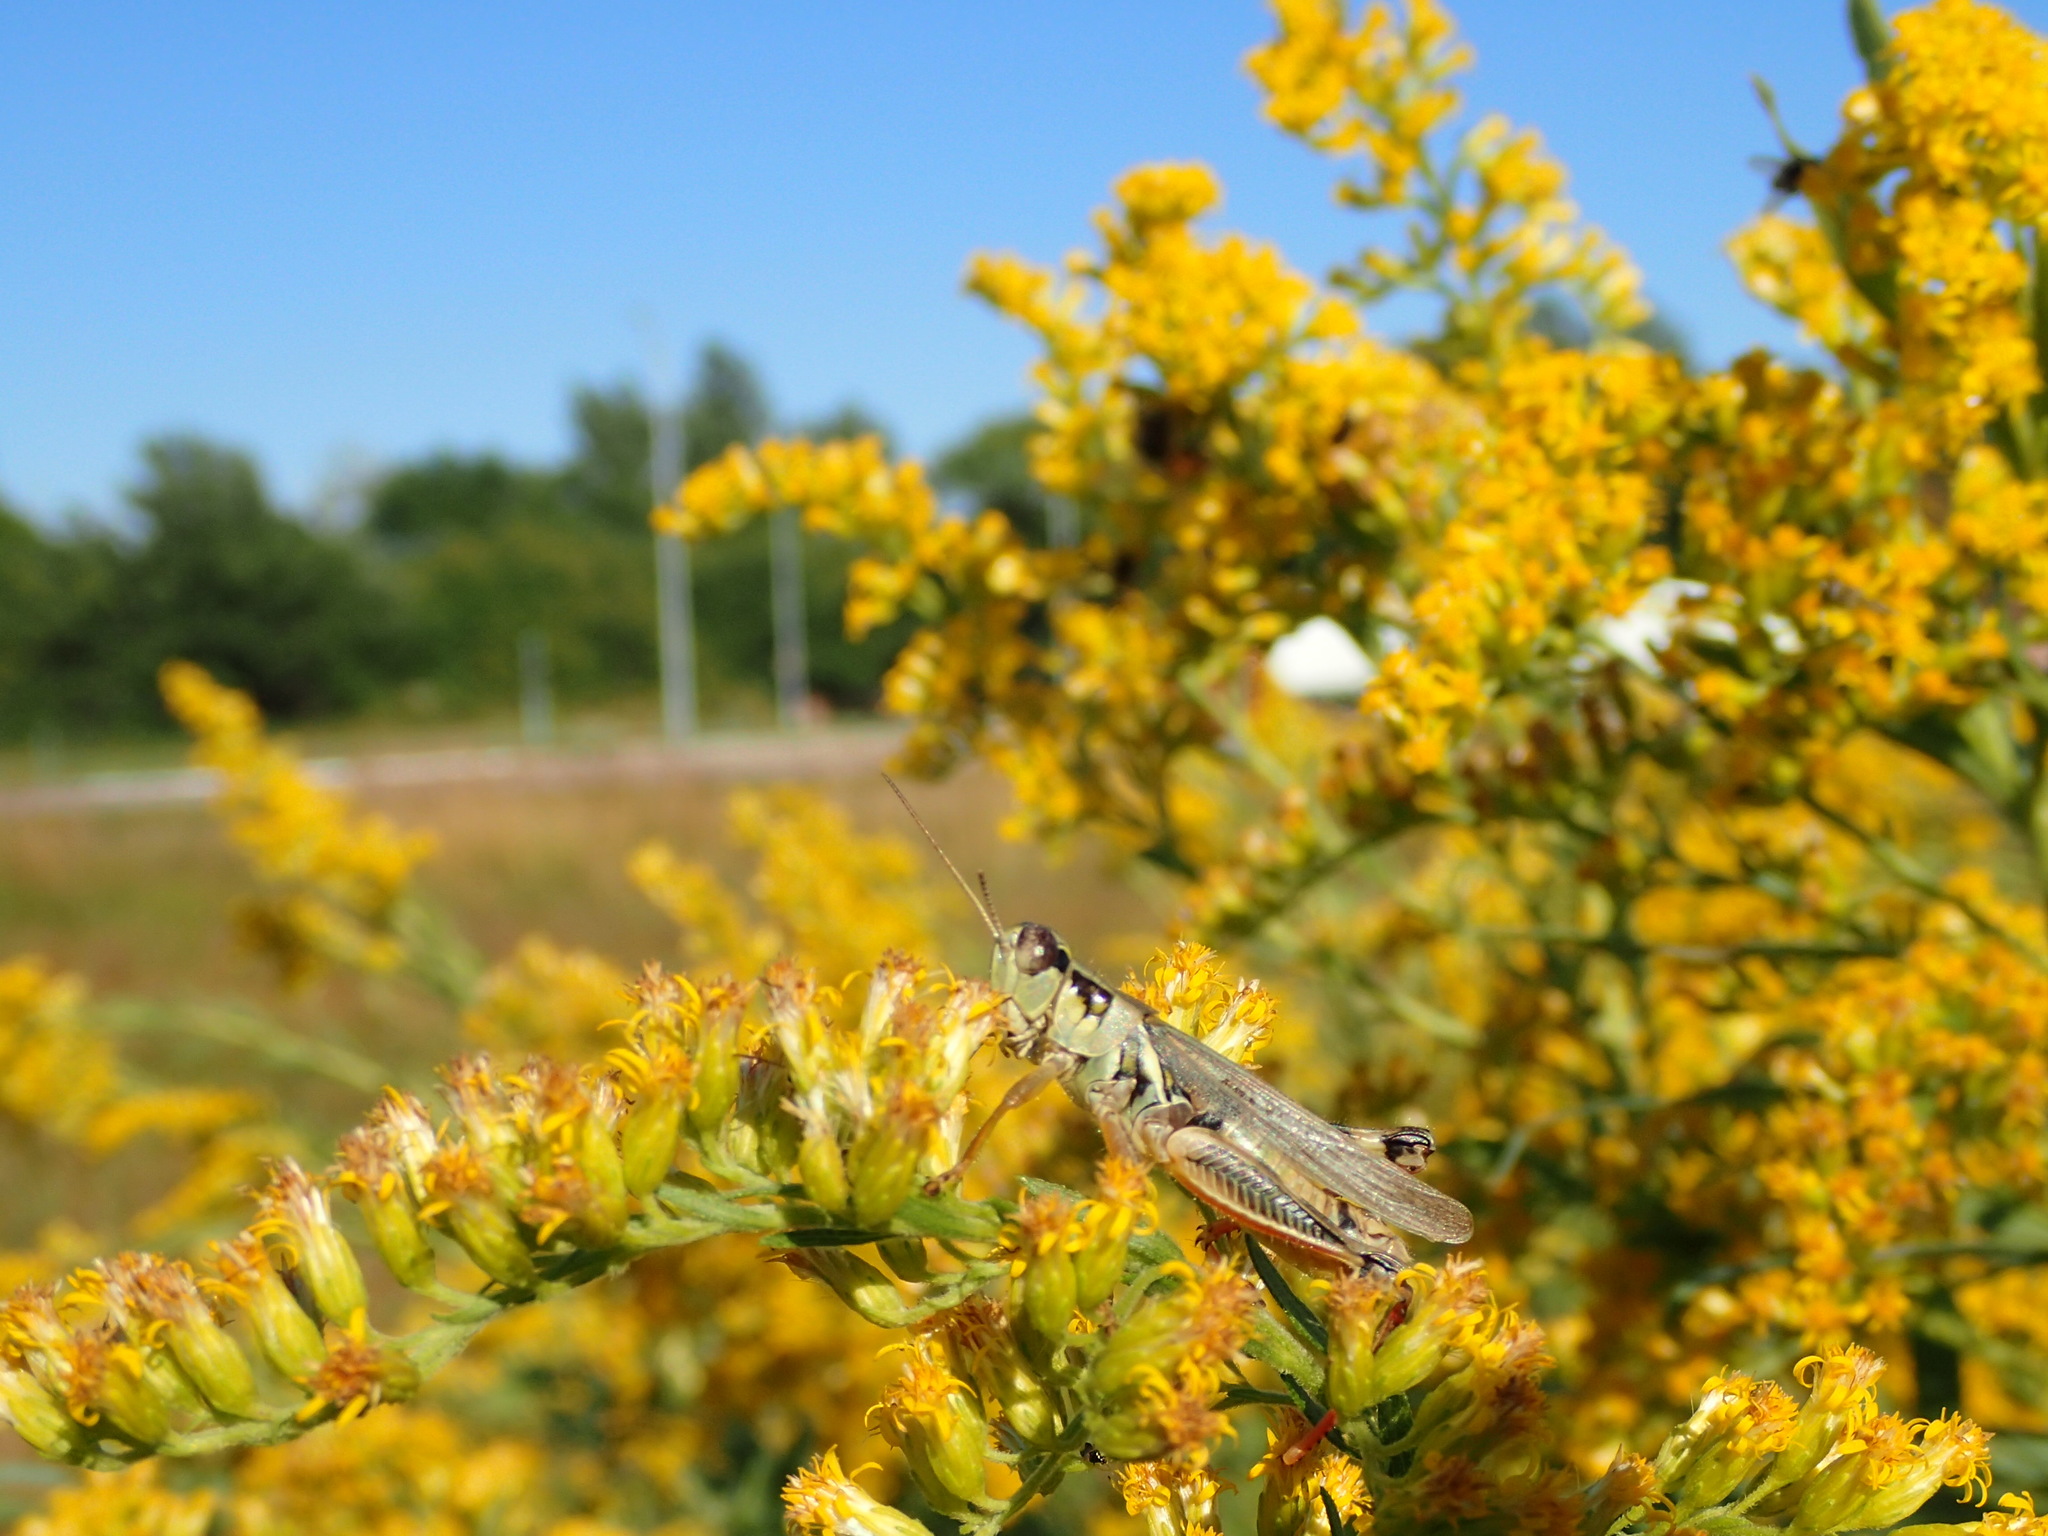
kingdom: Animalia
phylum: Arthropoda
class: Insecta
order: Orthoptera
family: Acrididae
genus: Melanoplus
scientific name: Melanoplus femurrubrum
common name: Red-legged grasshopper
